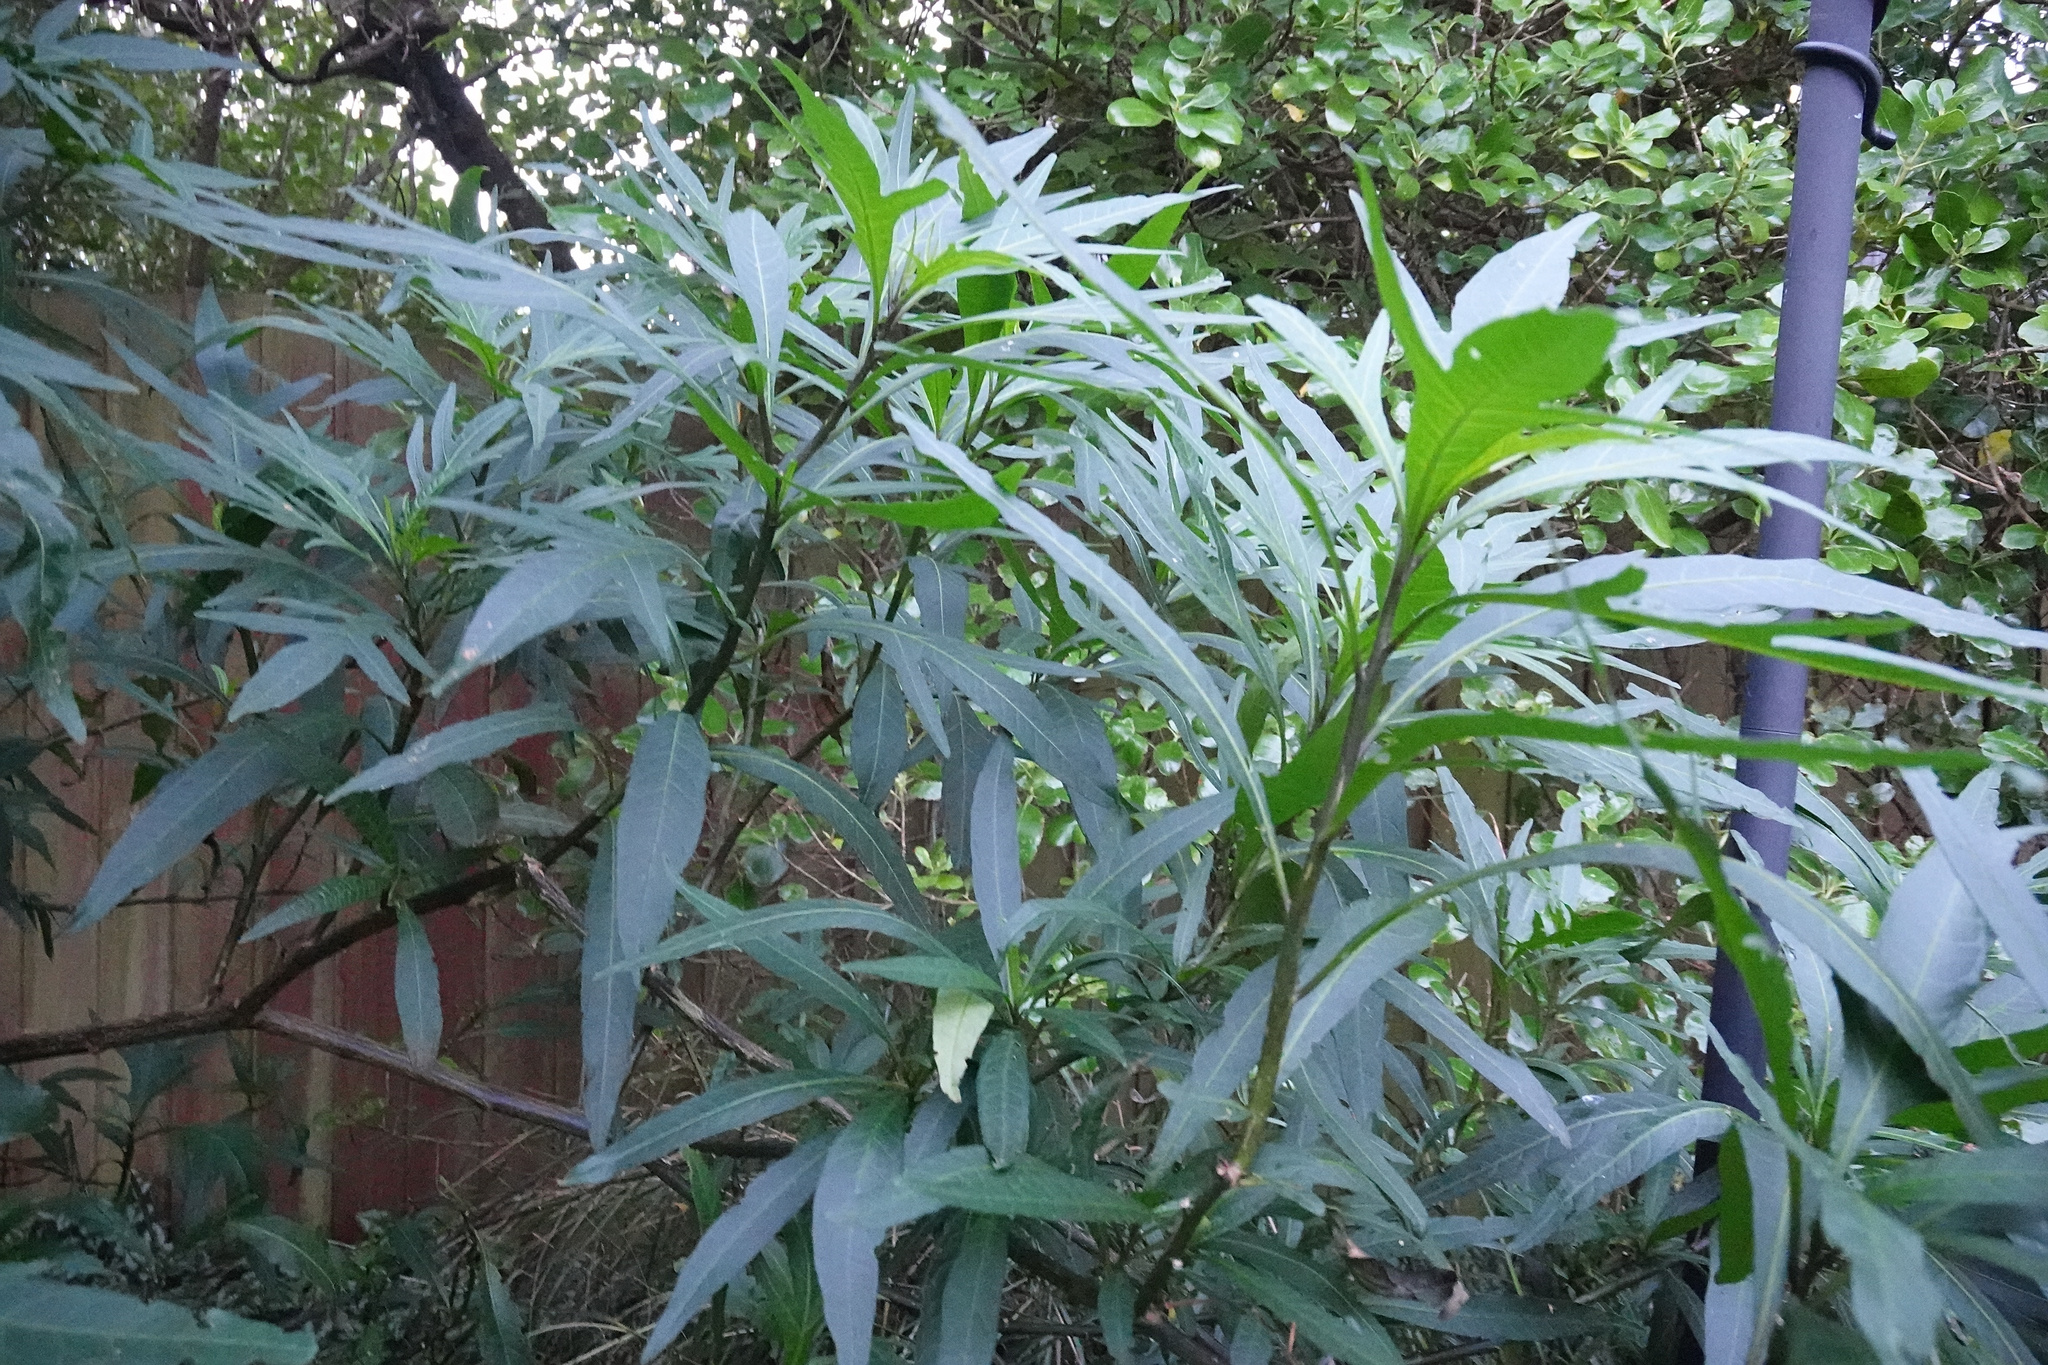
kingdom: Plantae
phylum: Tracheophyta
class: Magnoliopsida
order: Solanales
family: Solanaceae
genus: Solanum
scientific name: Solanum laciniatum
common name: Kangaroo-apple
